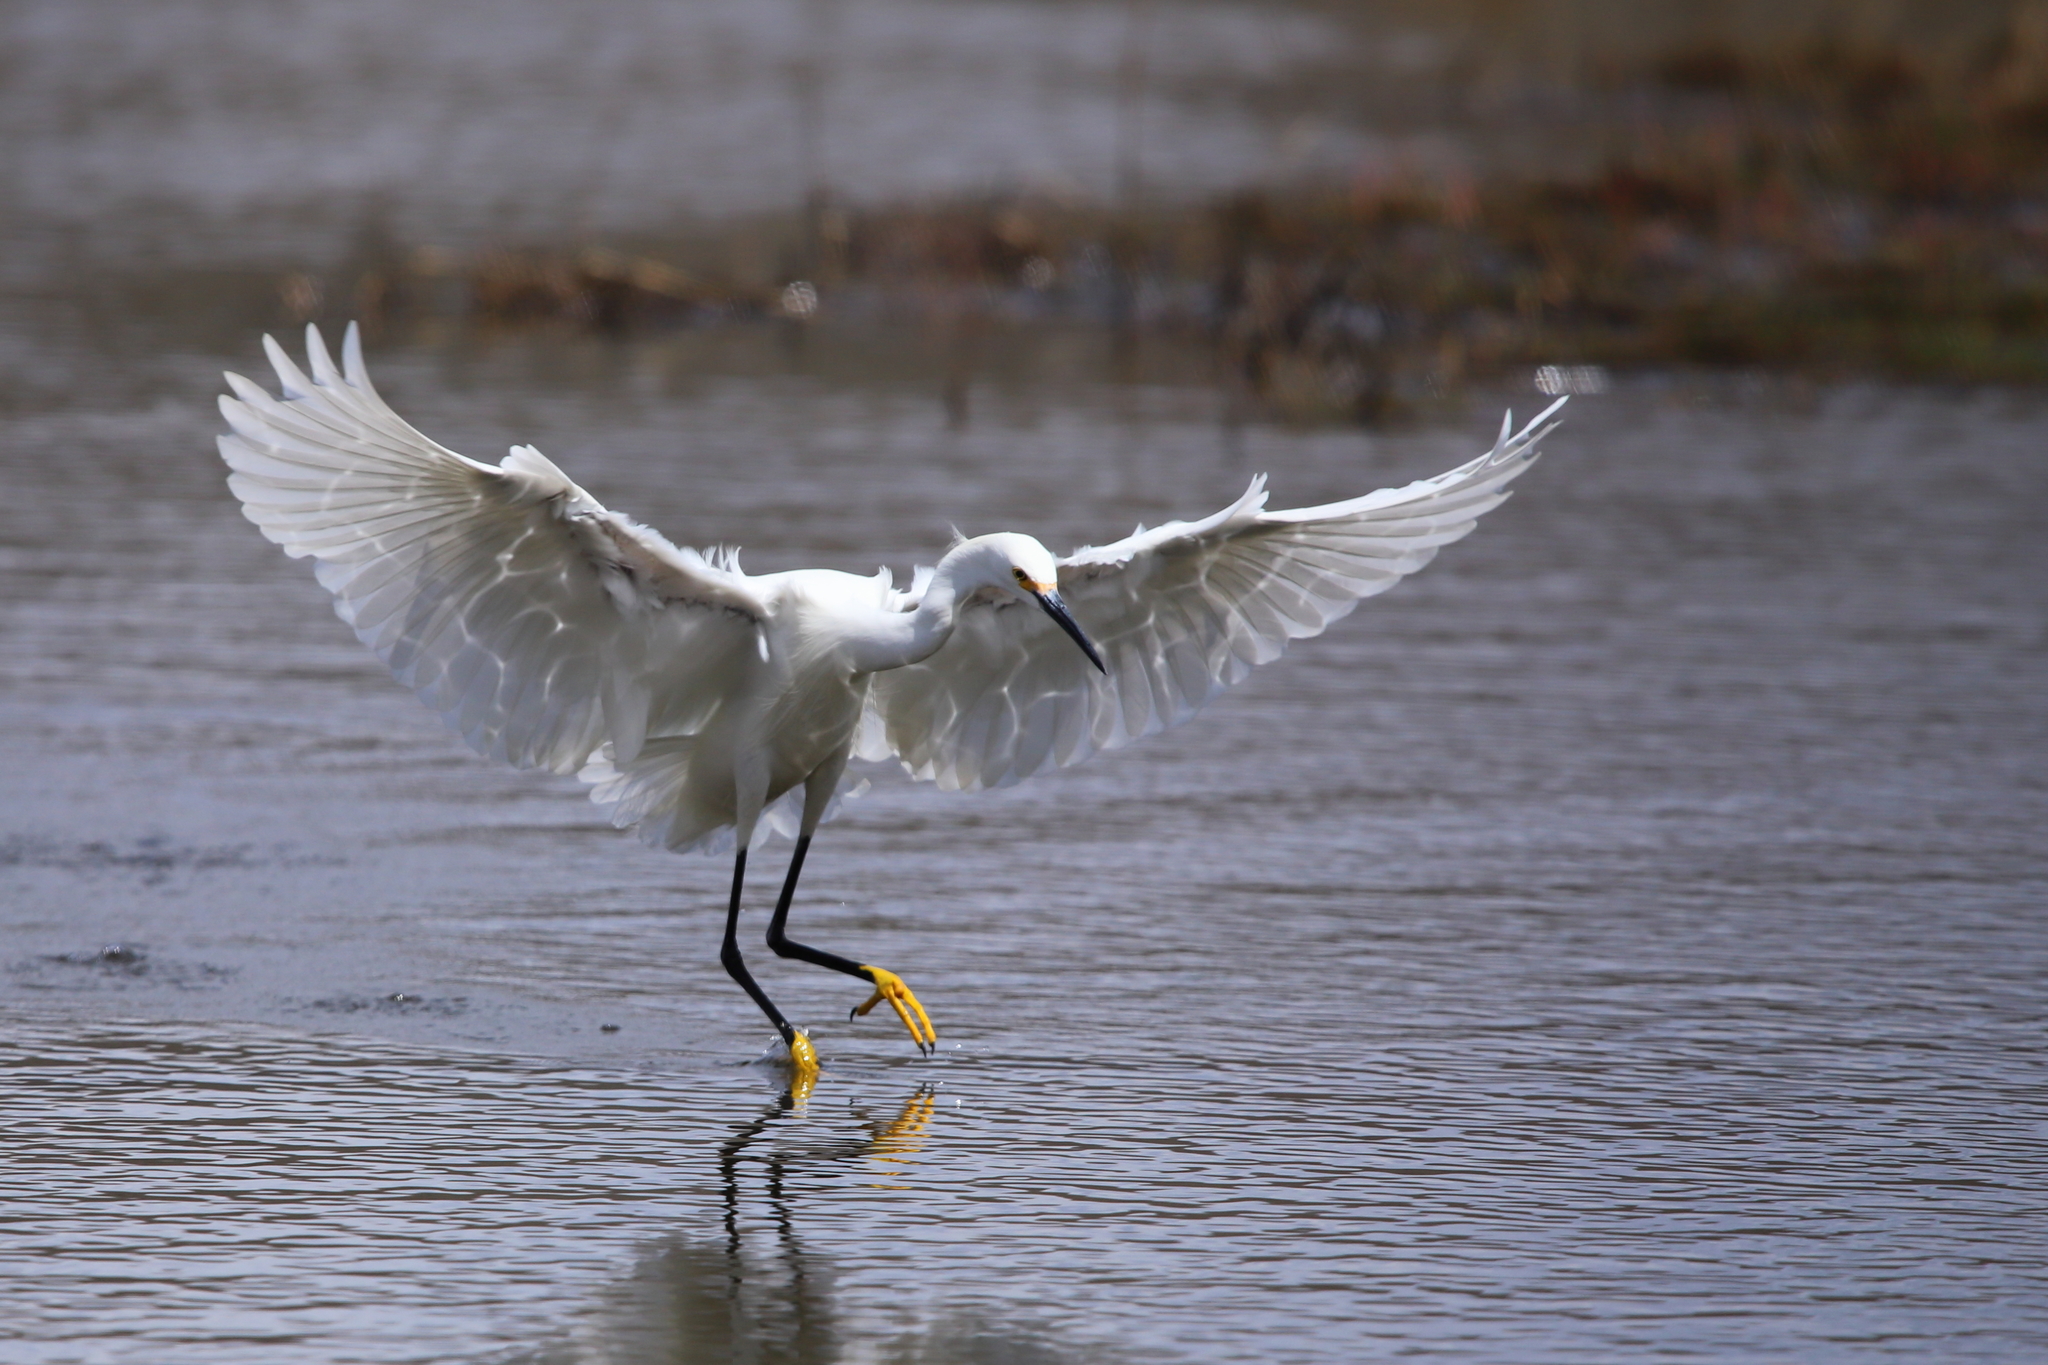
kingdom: Animalia
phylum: Chordata
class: Aves
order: Pelecaniformes
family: Ardeidae
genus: Egretta
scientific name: Egretta thula
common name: Snowy egret
